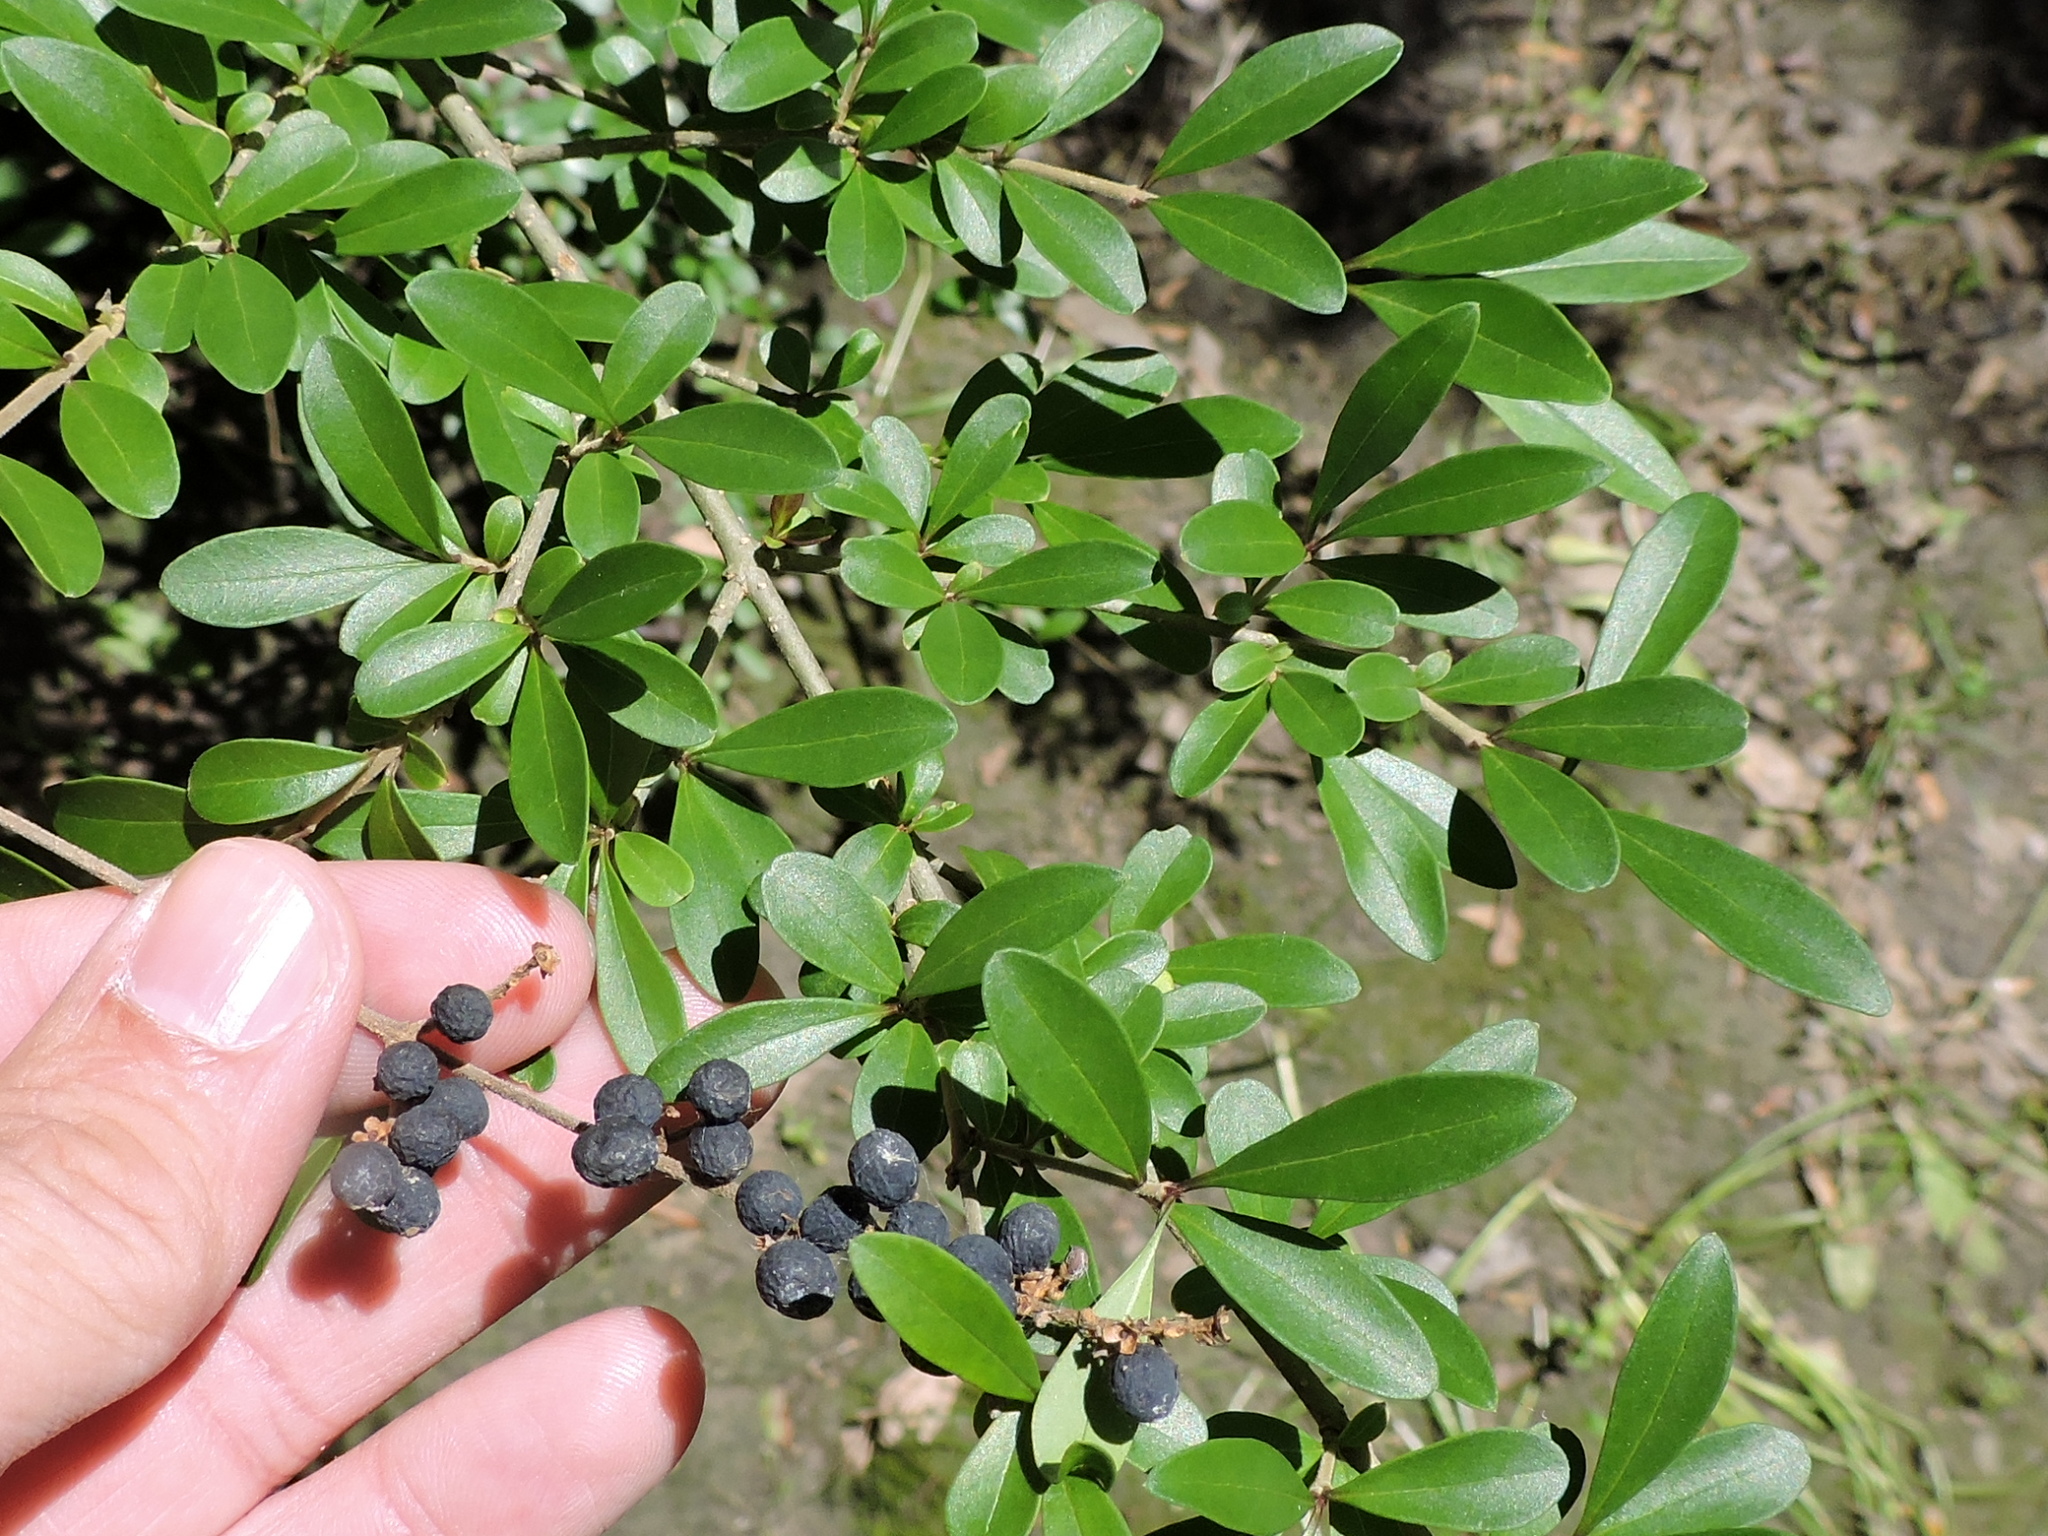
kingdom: Plantae
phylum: Tracheophyta
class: Magnoliopsida
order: Lamiales
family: Oleaceae
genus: Ligustrum
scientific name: Ligustrum quihoui
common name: Waxyleaf privet
